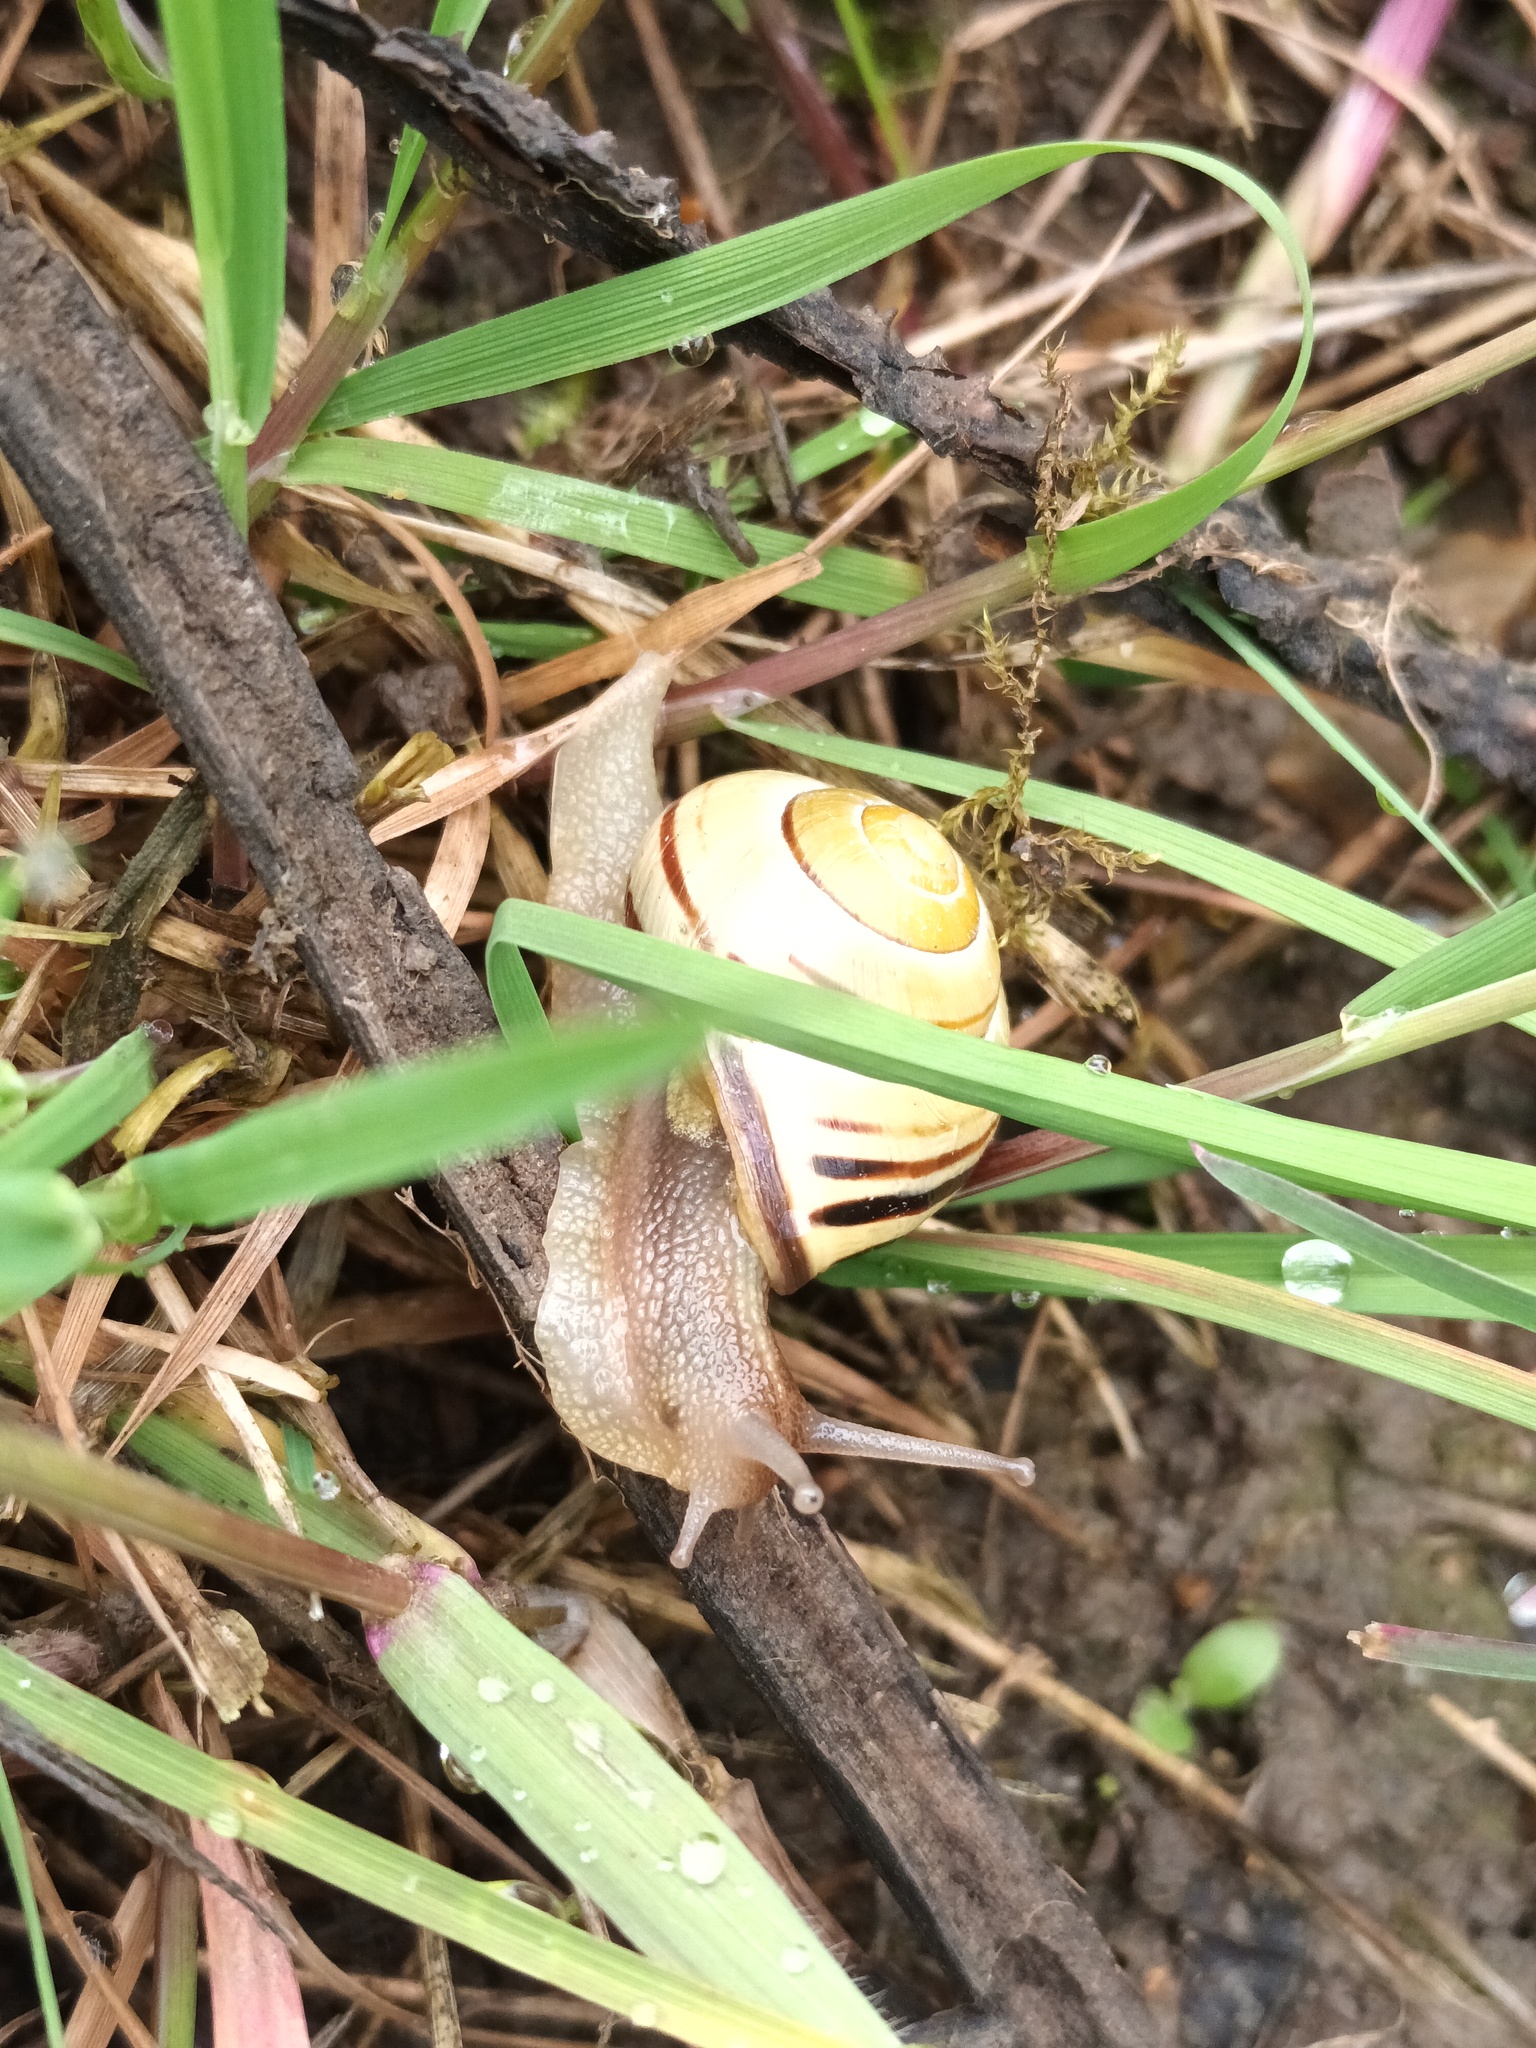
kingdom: Animalia
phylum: Mollusca
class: Gastropoda
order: Stylommatophora
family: Helicidae
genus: Cepaea
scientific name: Cepaea nemoralis
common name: Grovesnail
